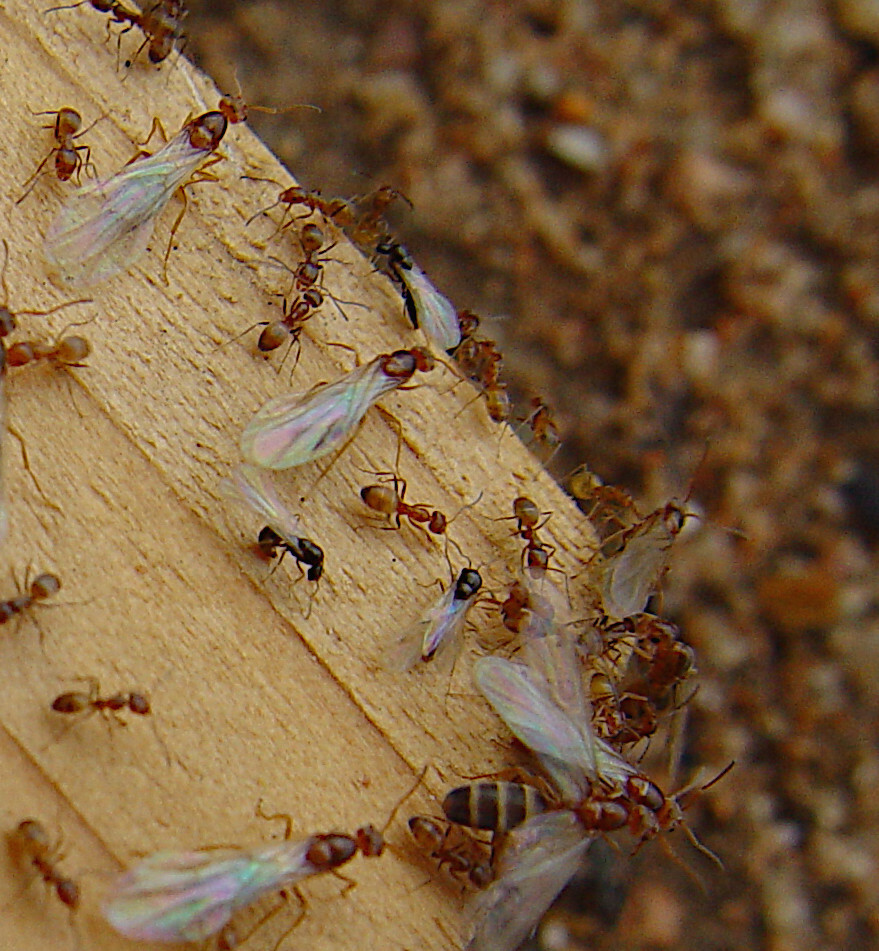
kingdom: Animalia
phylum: Arthropoda
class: Insecta
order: Hymenoptera
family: Formicidae
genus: Forelius
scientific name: Forelius
